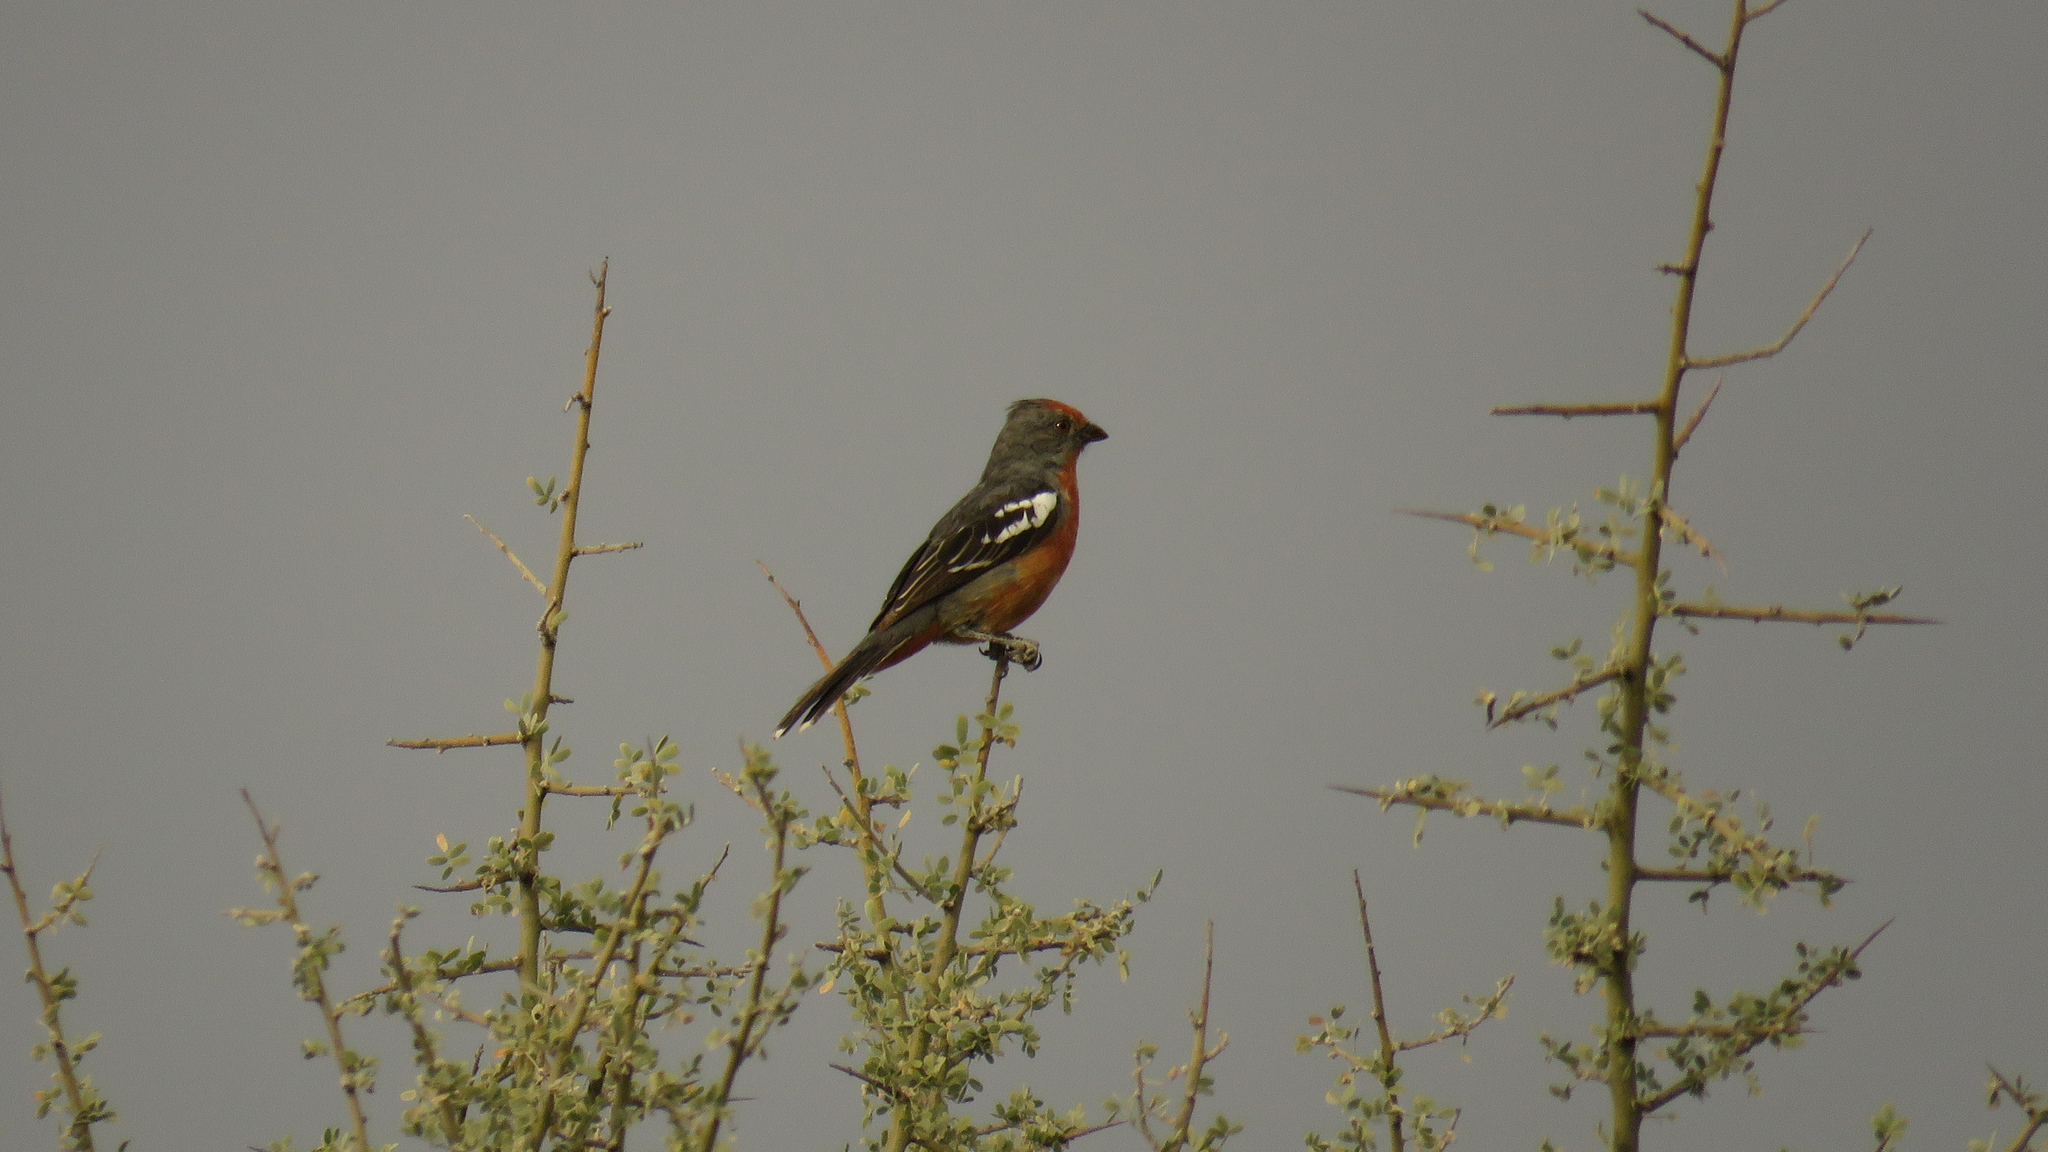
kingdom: Animalia
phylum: Chordata
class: Aves
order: Passeriformes
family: Cotingidae
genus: Phytotoma
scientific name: Phytotoma rutila
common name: White-tipped plantcutter
